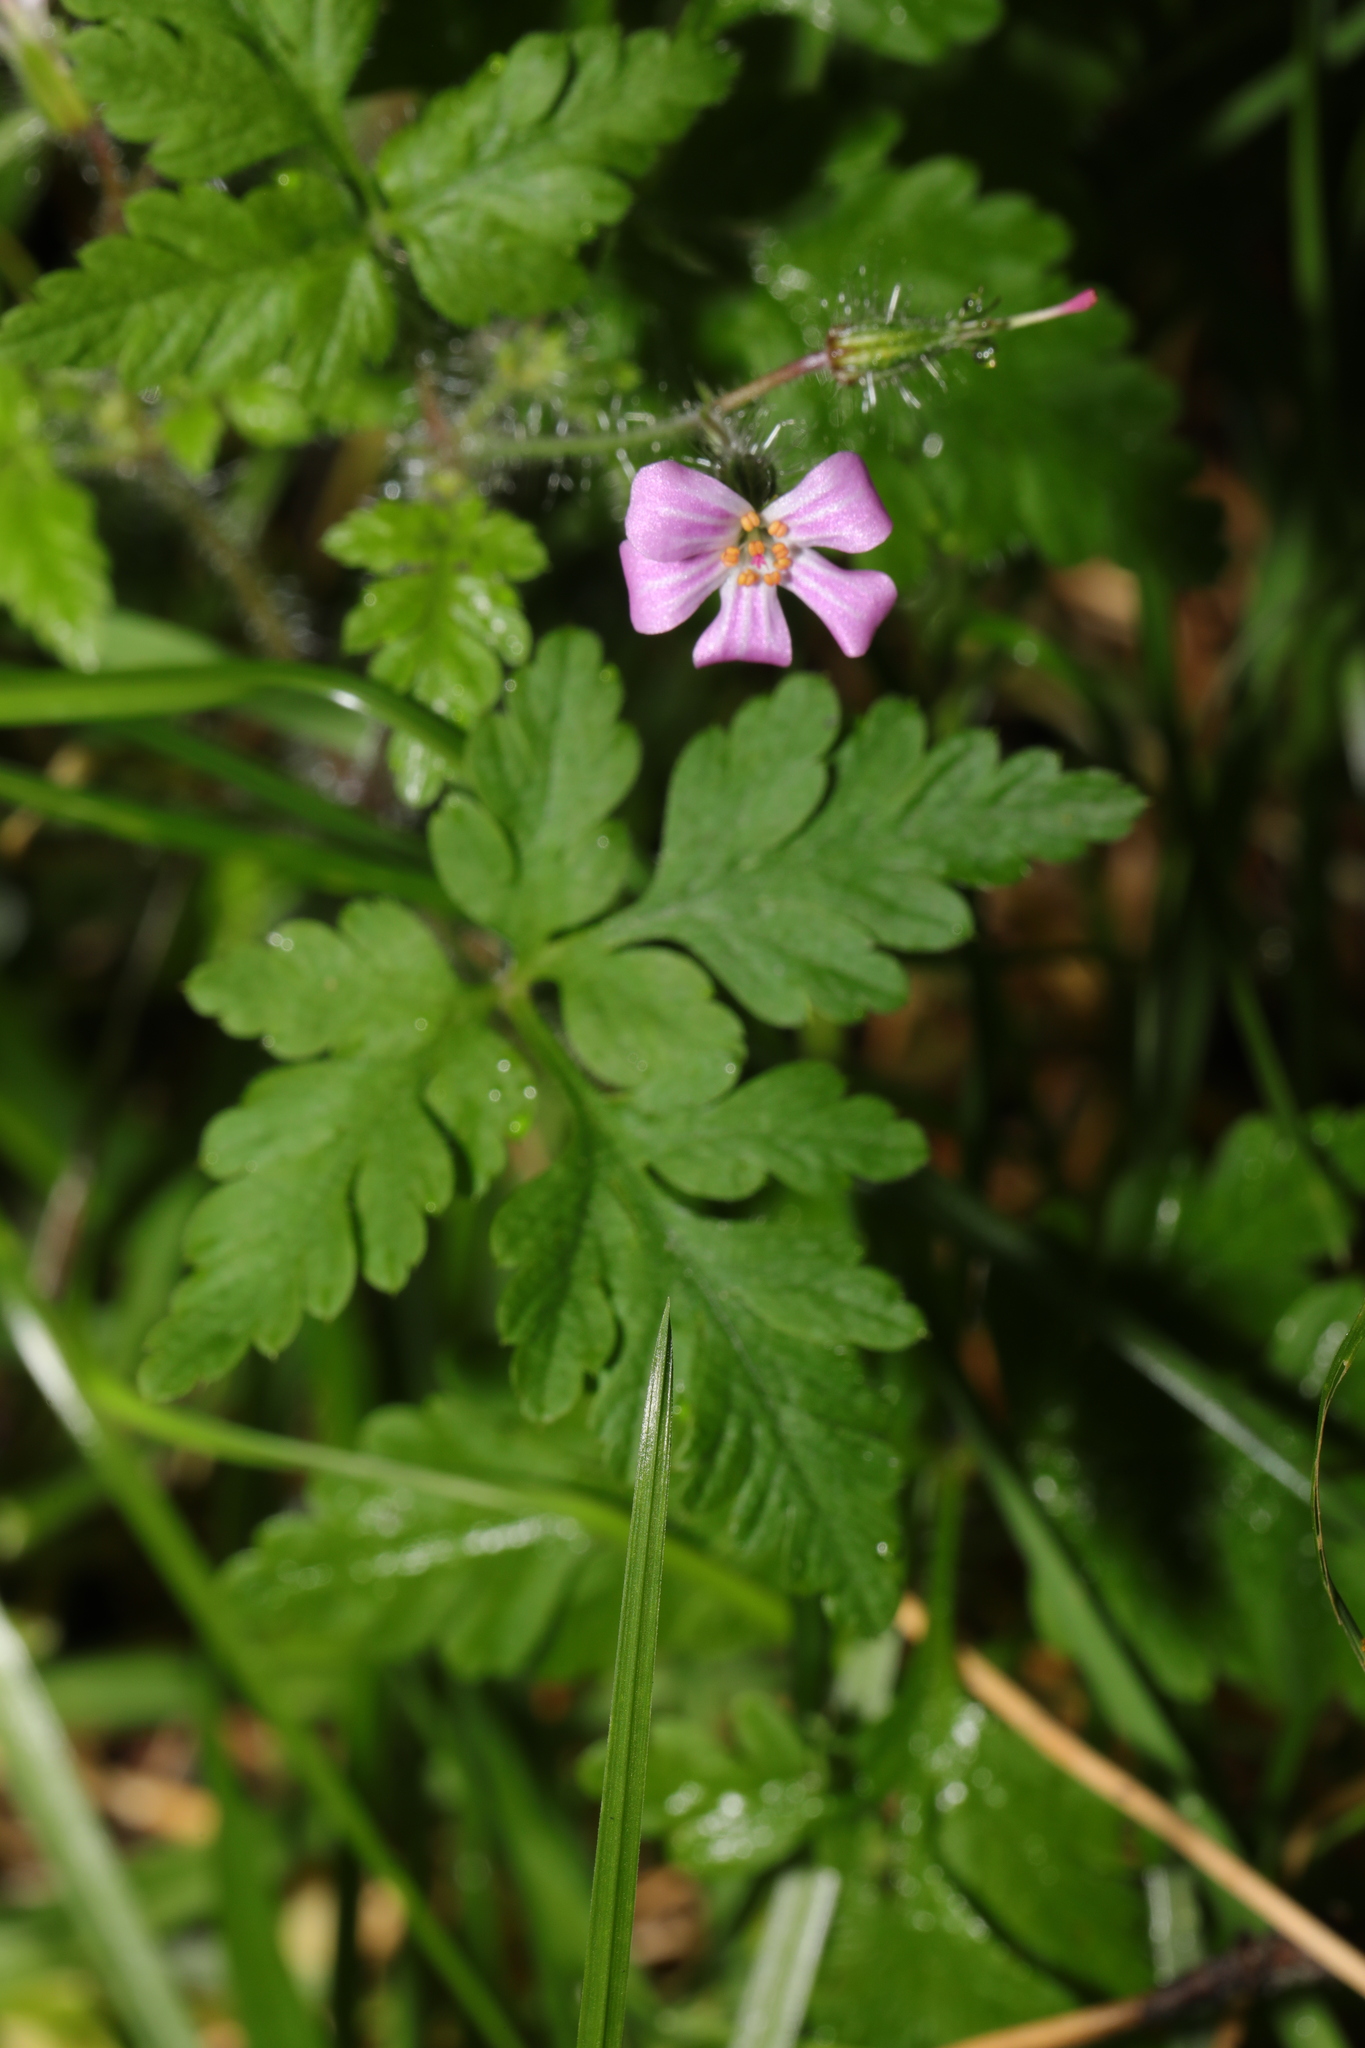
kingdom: Plantae
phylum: Tracheophyta
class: Magnoliopsida
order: Geraniales
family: Geraniaceae
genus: Geranium
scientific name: Geranium robertianum
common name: Herb-robert
